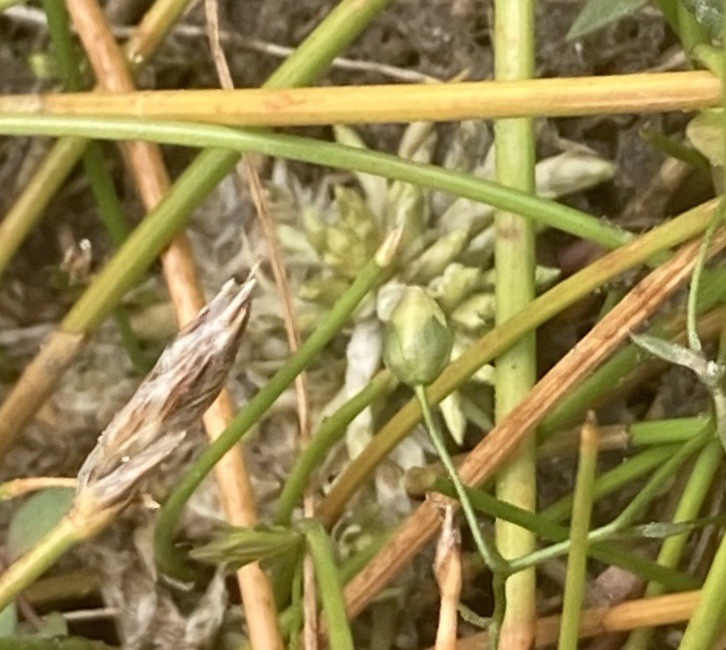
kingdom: Plantae
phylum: Tracheophyta
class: Magnoliopsida
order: Lamiales
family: Plantaginaceae
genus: Veronica
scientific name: Veronica scutellata
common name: Marsh speedwell
